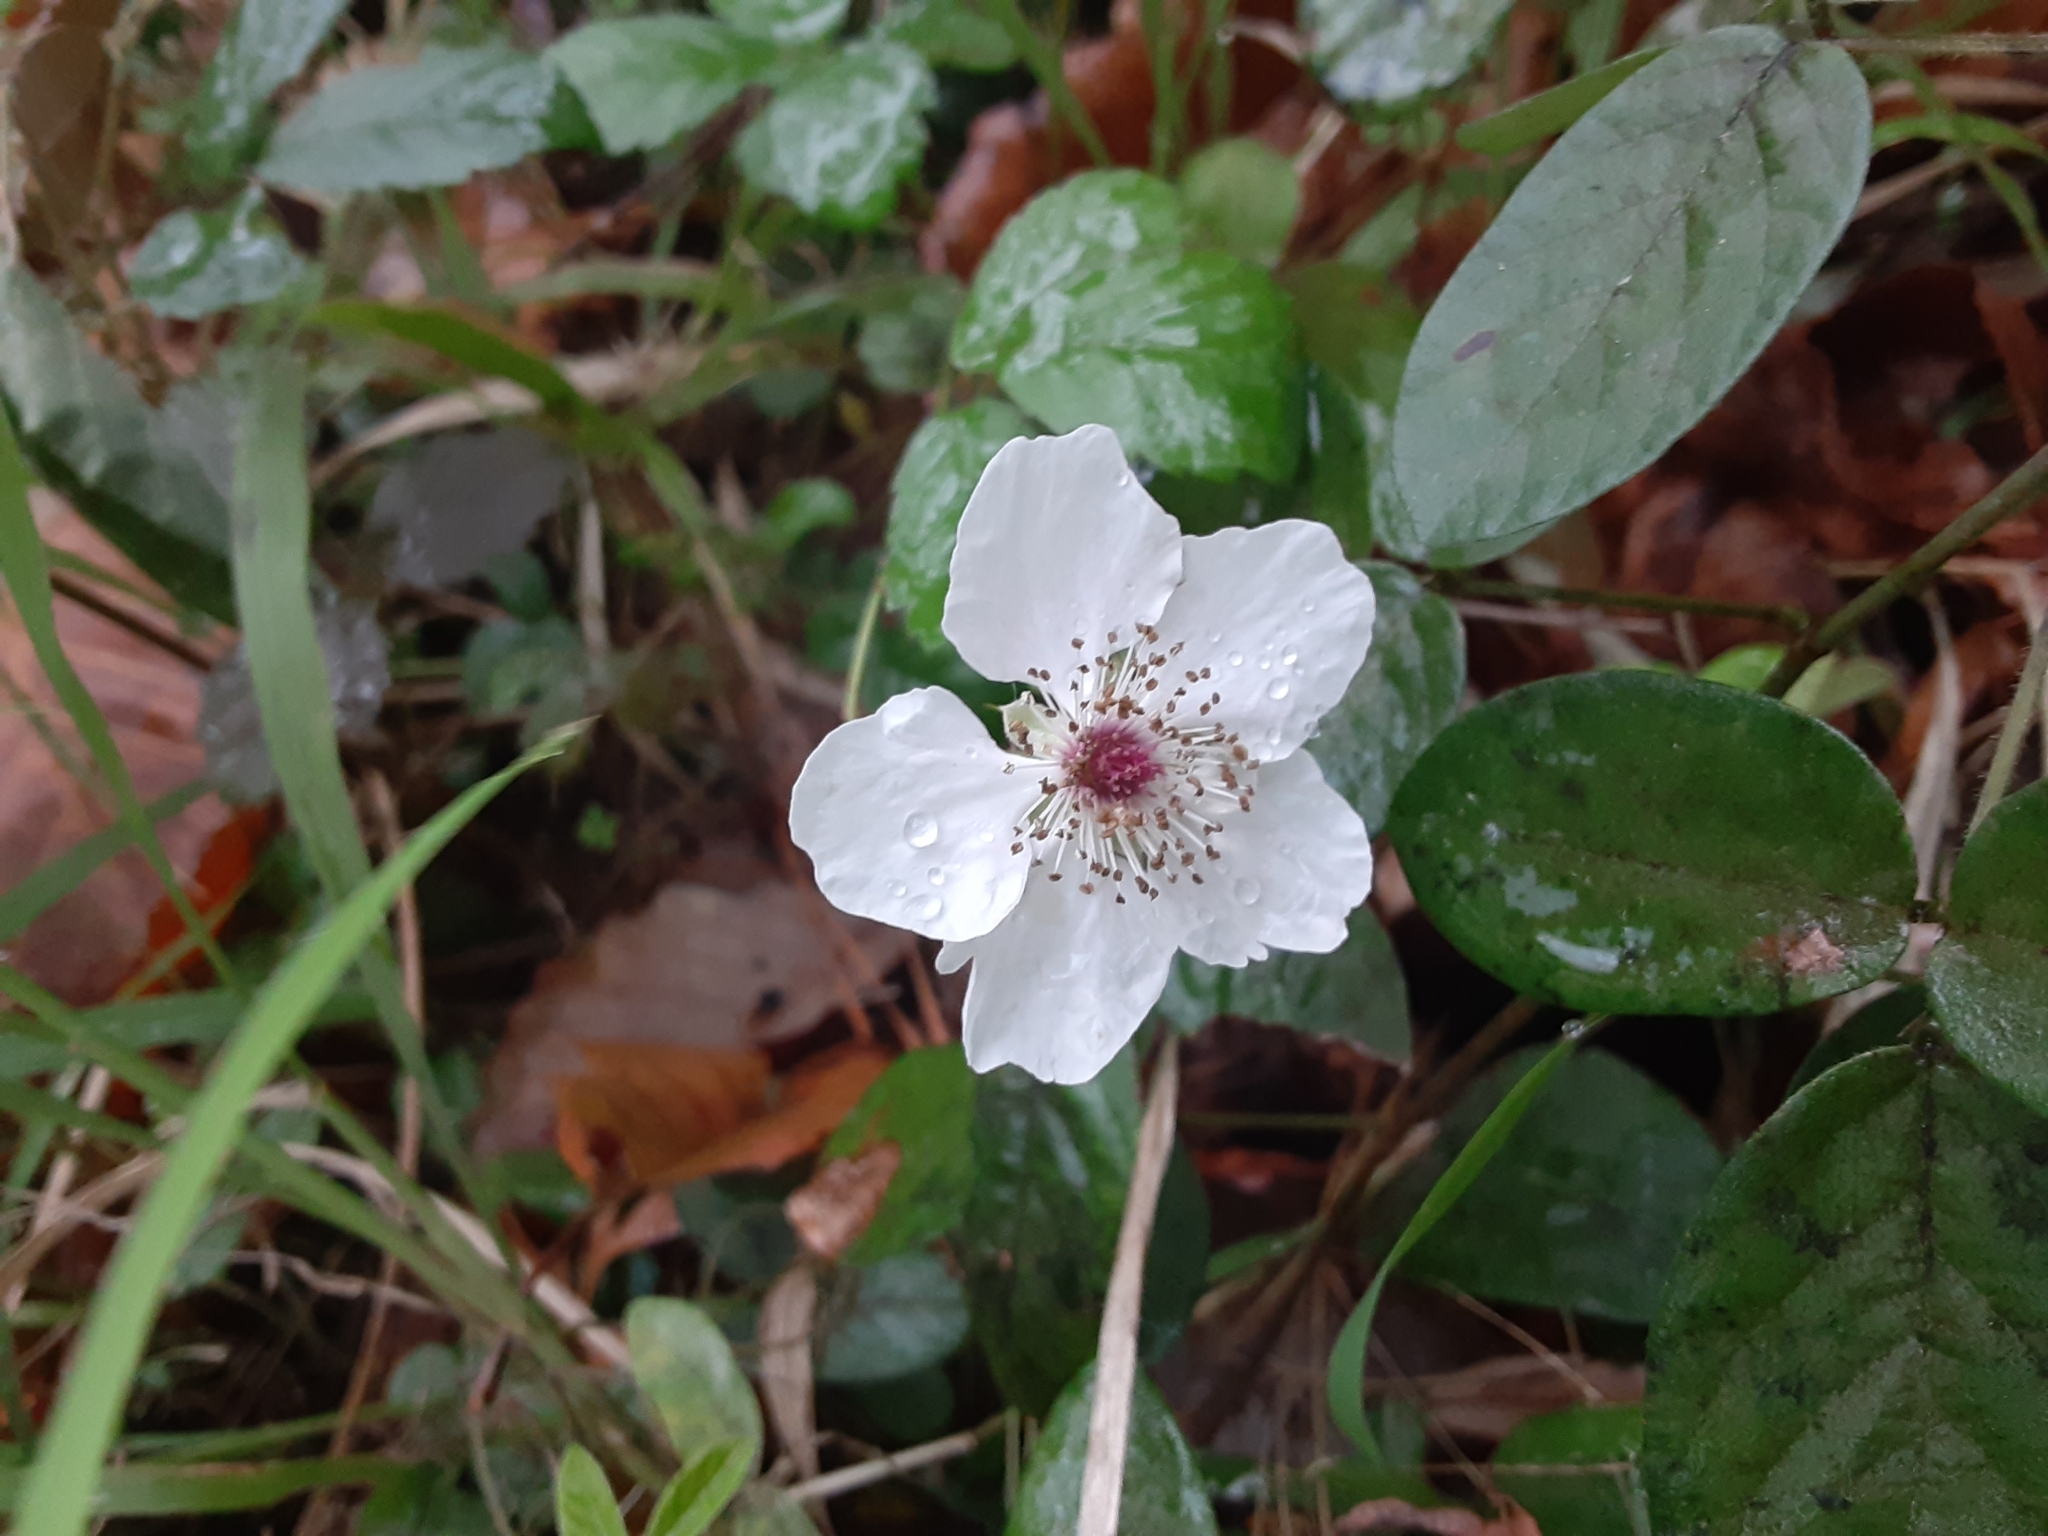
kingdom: Plantae
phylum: Tracheophyta
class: Magnoliopsida
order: Rosales
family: Rosaceae
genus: Rubus
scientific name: Rubus trivialis
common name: Southern dewberry
